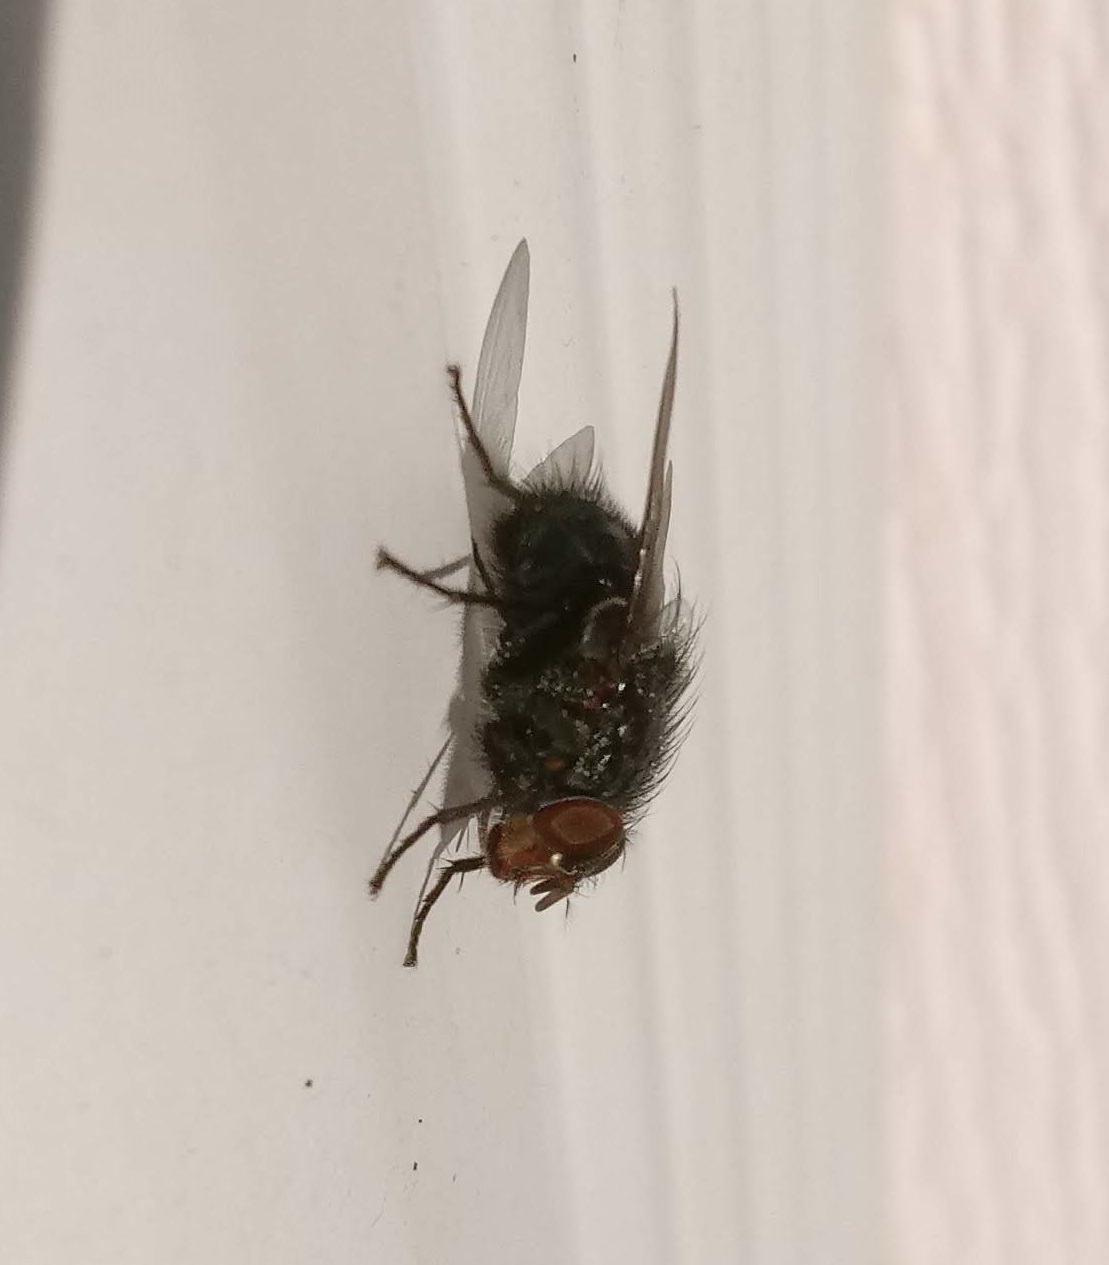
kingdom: Animalia
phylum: Arthropoda
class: Insecta
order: Diptera
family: Calliphoridae
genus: Calliphora
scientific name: Calliphora vicina
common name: Common blow flie
